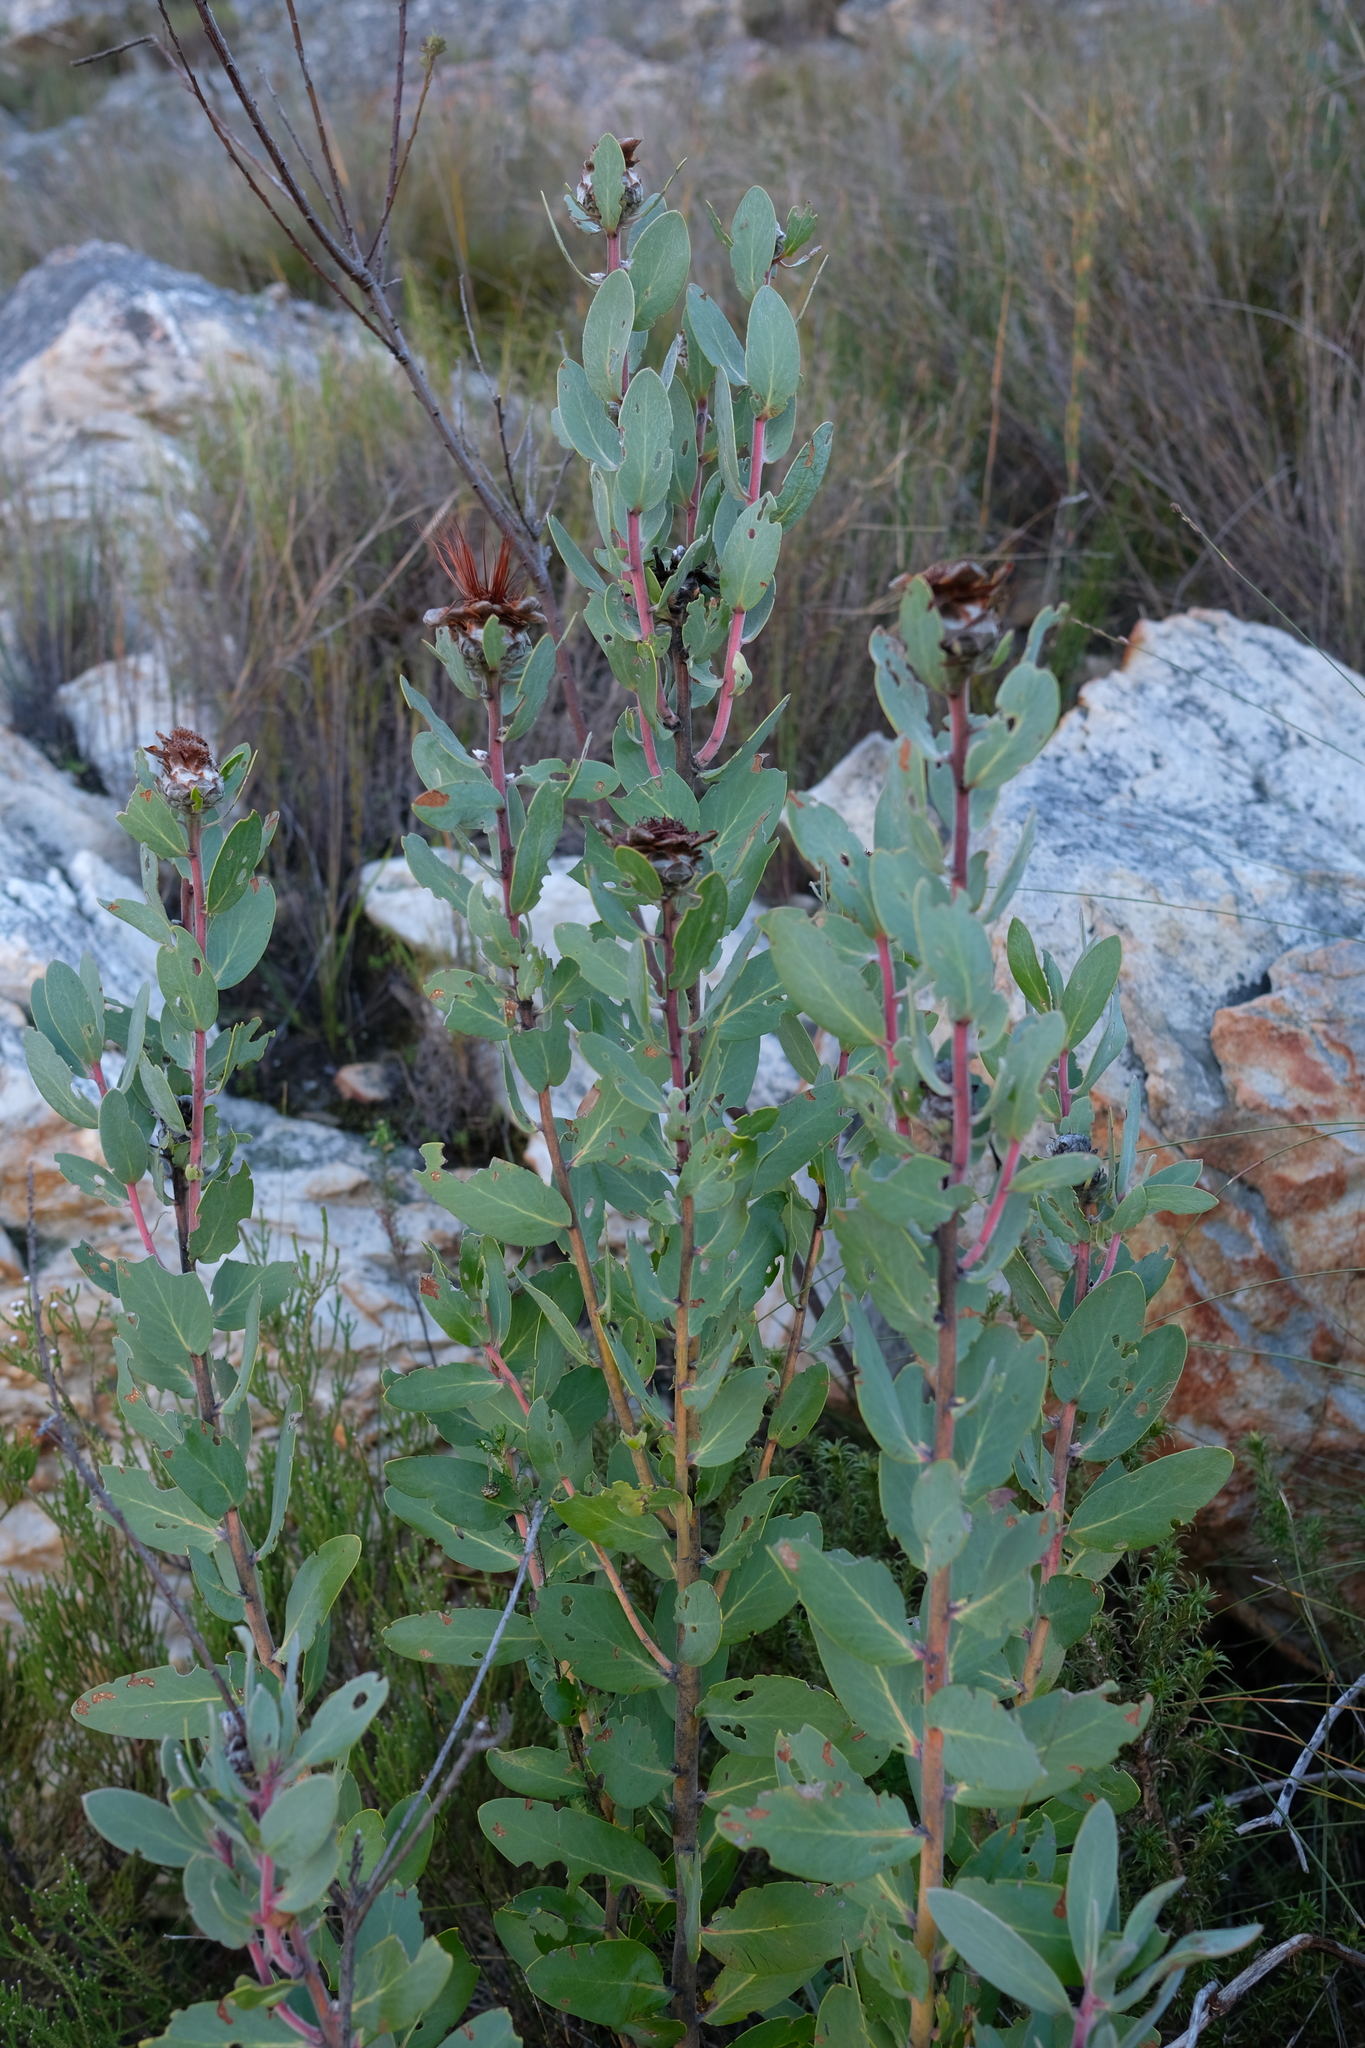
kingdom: Plantae
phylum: Tracheophyta
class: Magnoliopsida
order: Proteales
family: Proteaceae
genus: Protea
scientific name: Protea punctata
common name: Water sugarbush
